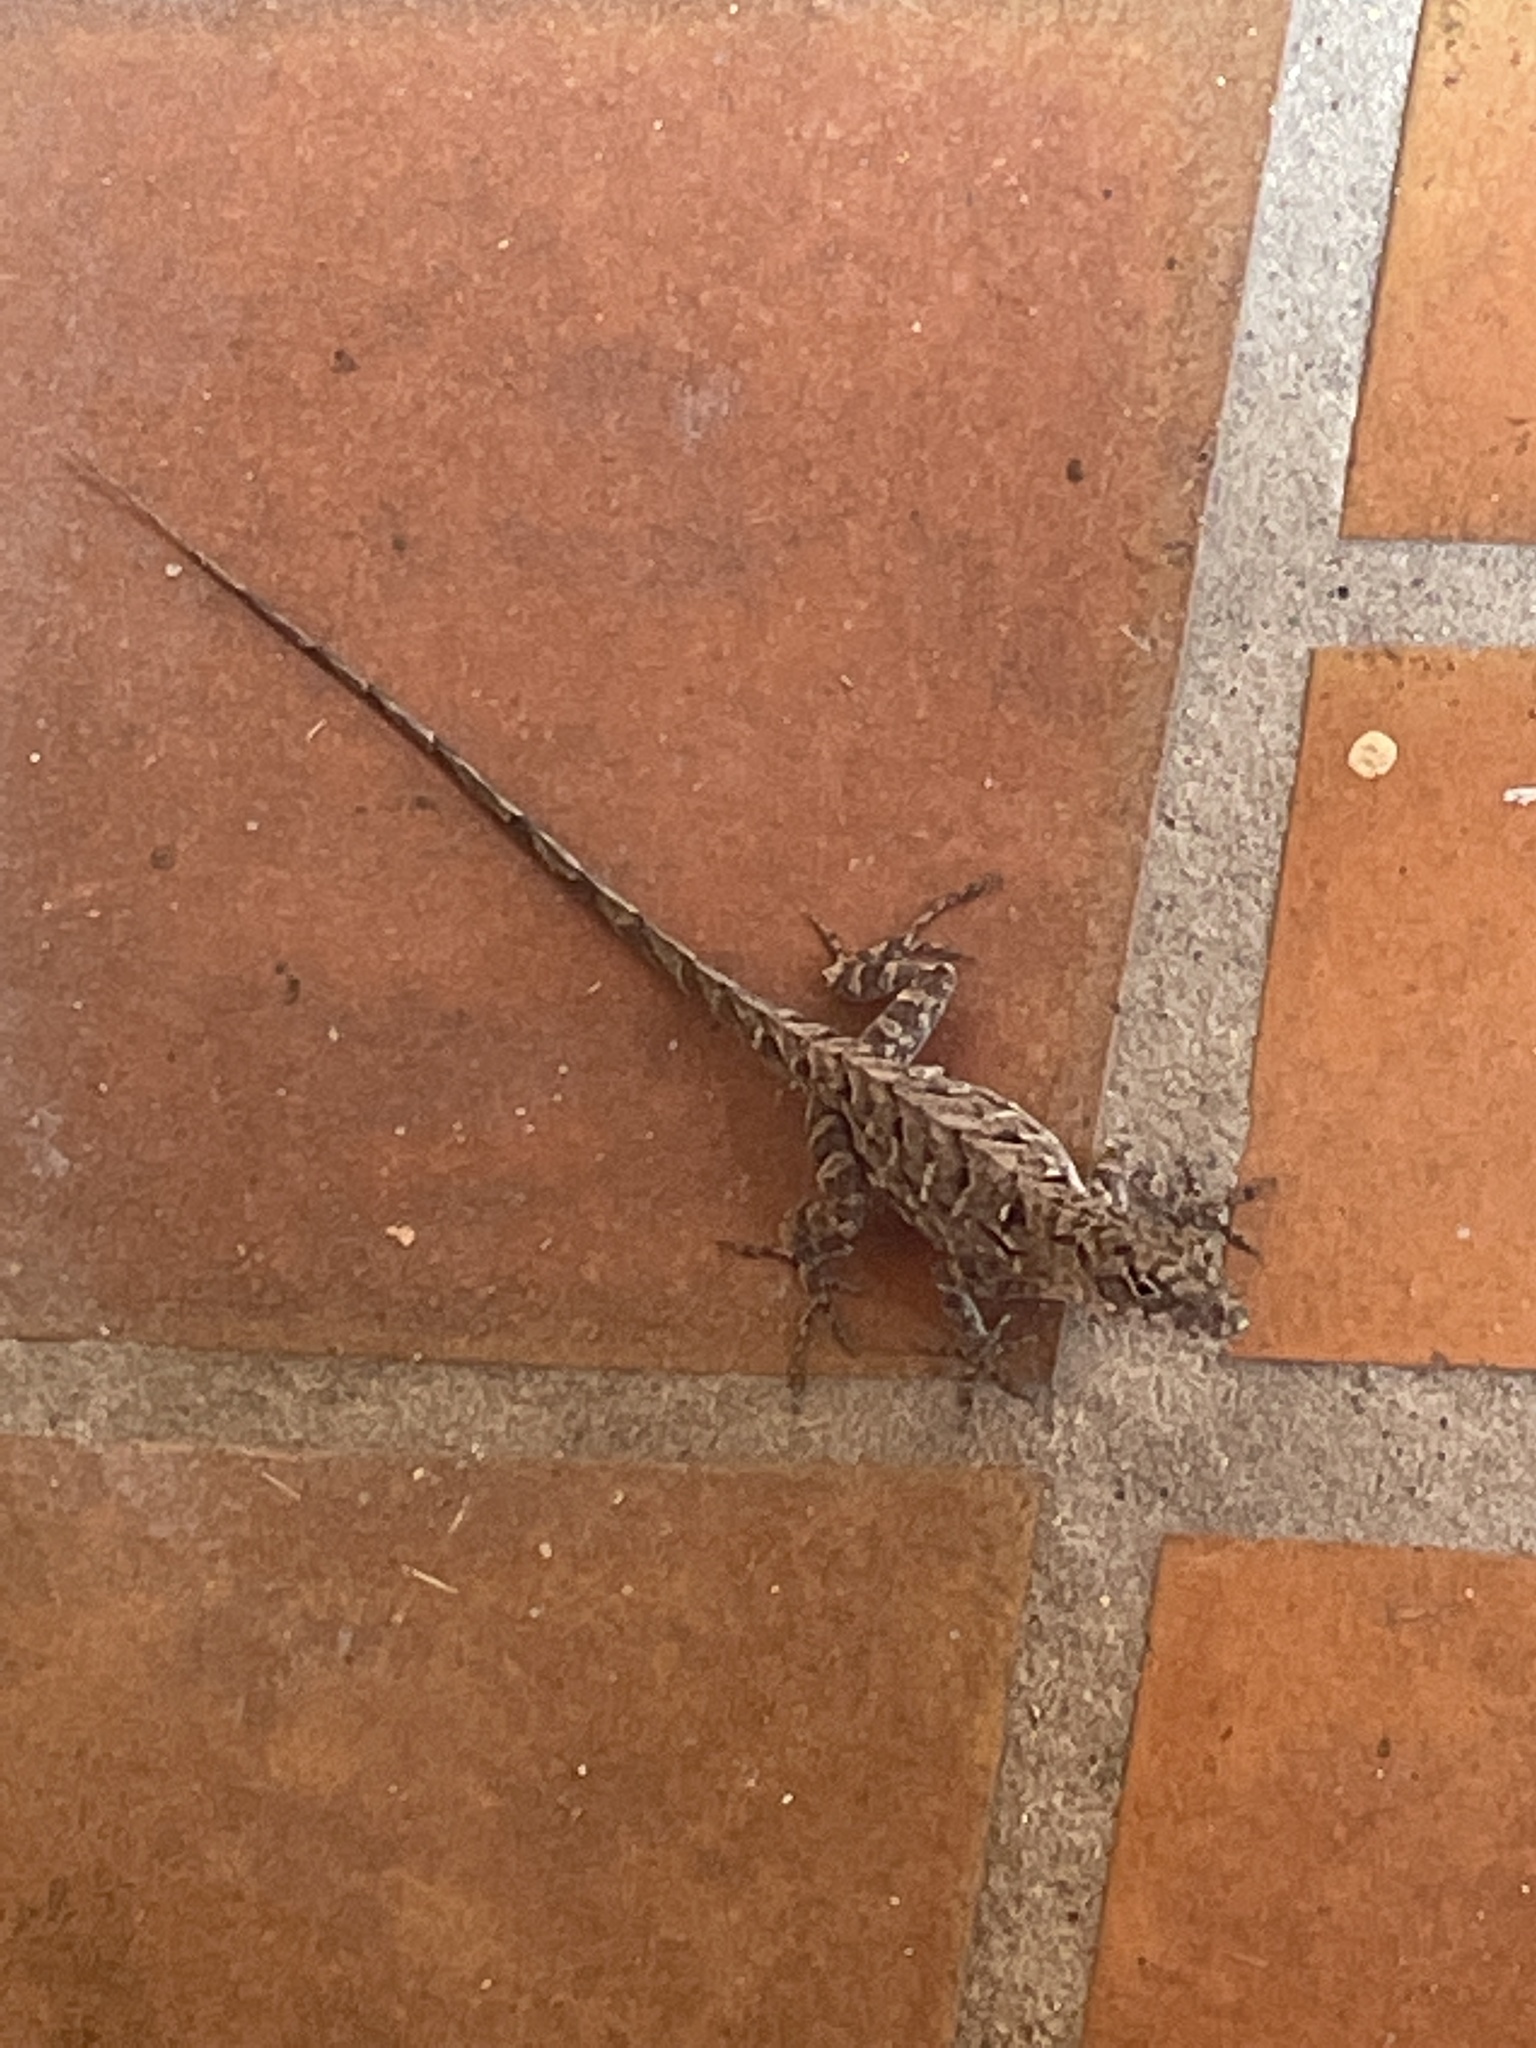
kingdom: Animalia
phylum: Chordata
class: Squamata
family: Dactyloidae
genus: Anolis
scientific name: Anolis sagrei
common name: Brown anole
